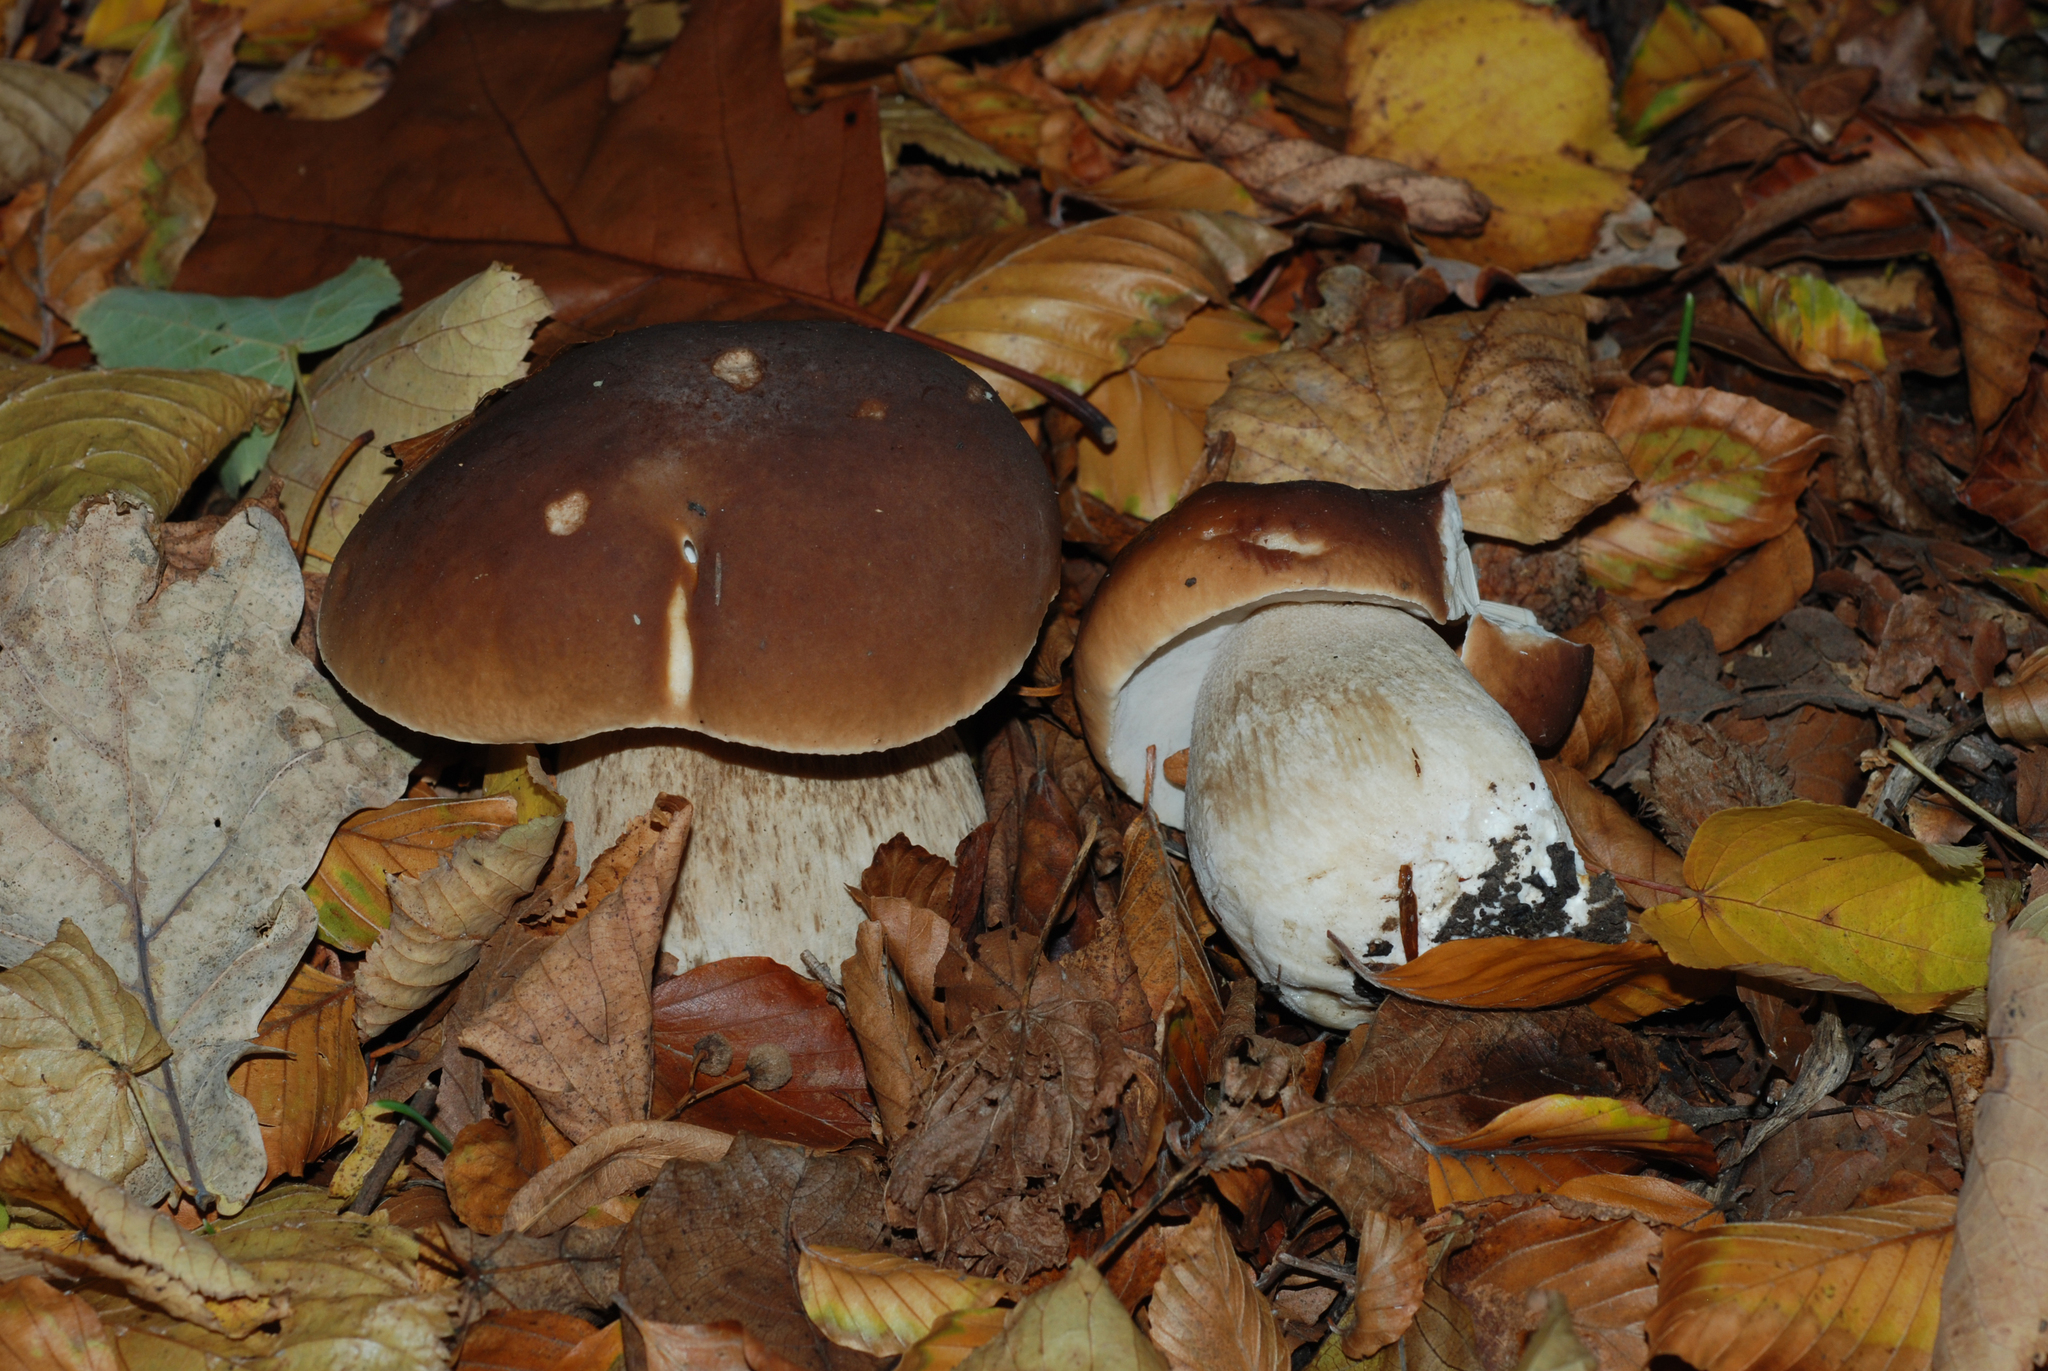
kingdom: Fungi
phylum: Basidiomycota
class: Agaricomycetes
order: Boletales
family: Boletaceae
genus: Boletus
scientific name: Boletus edulis
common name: Cep
